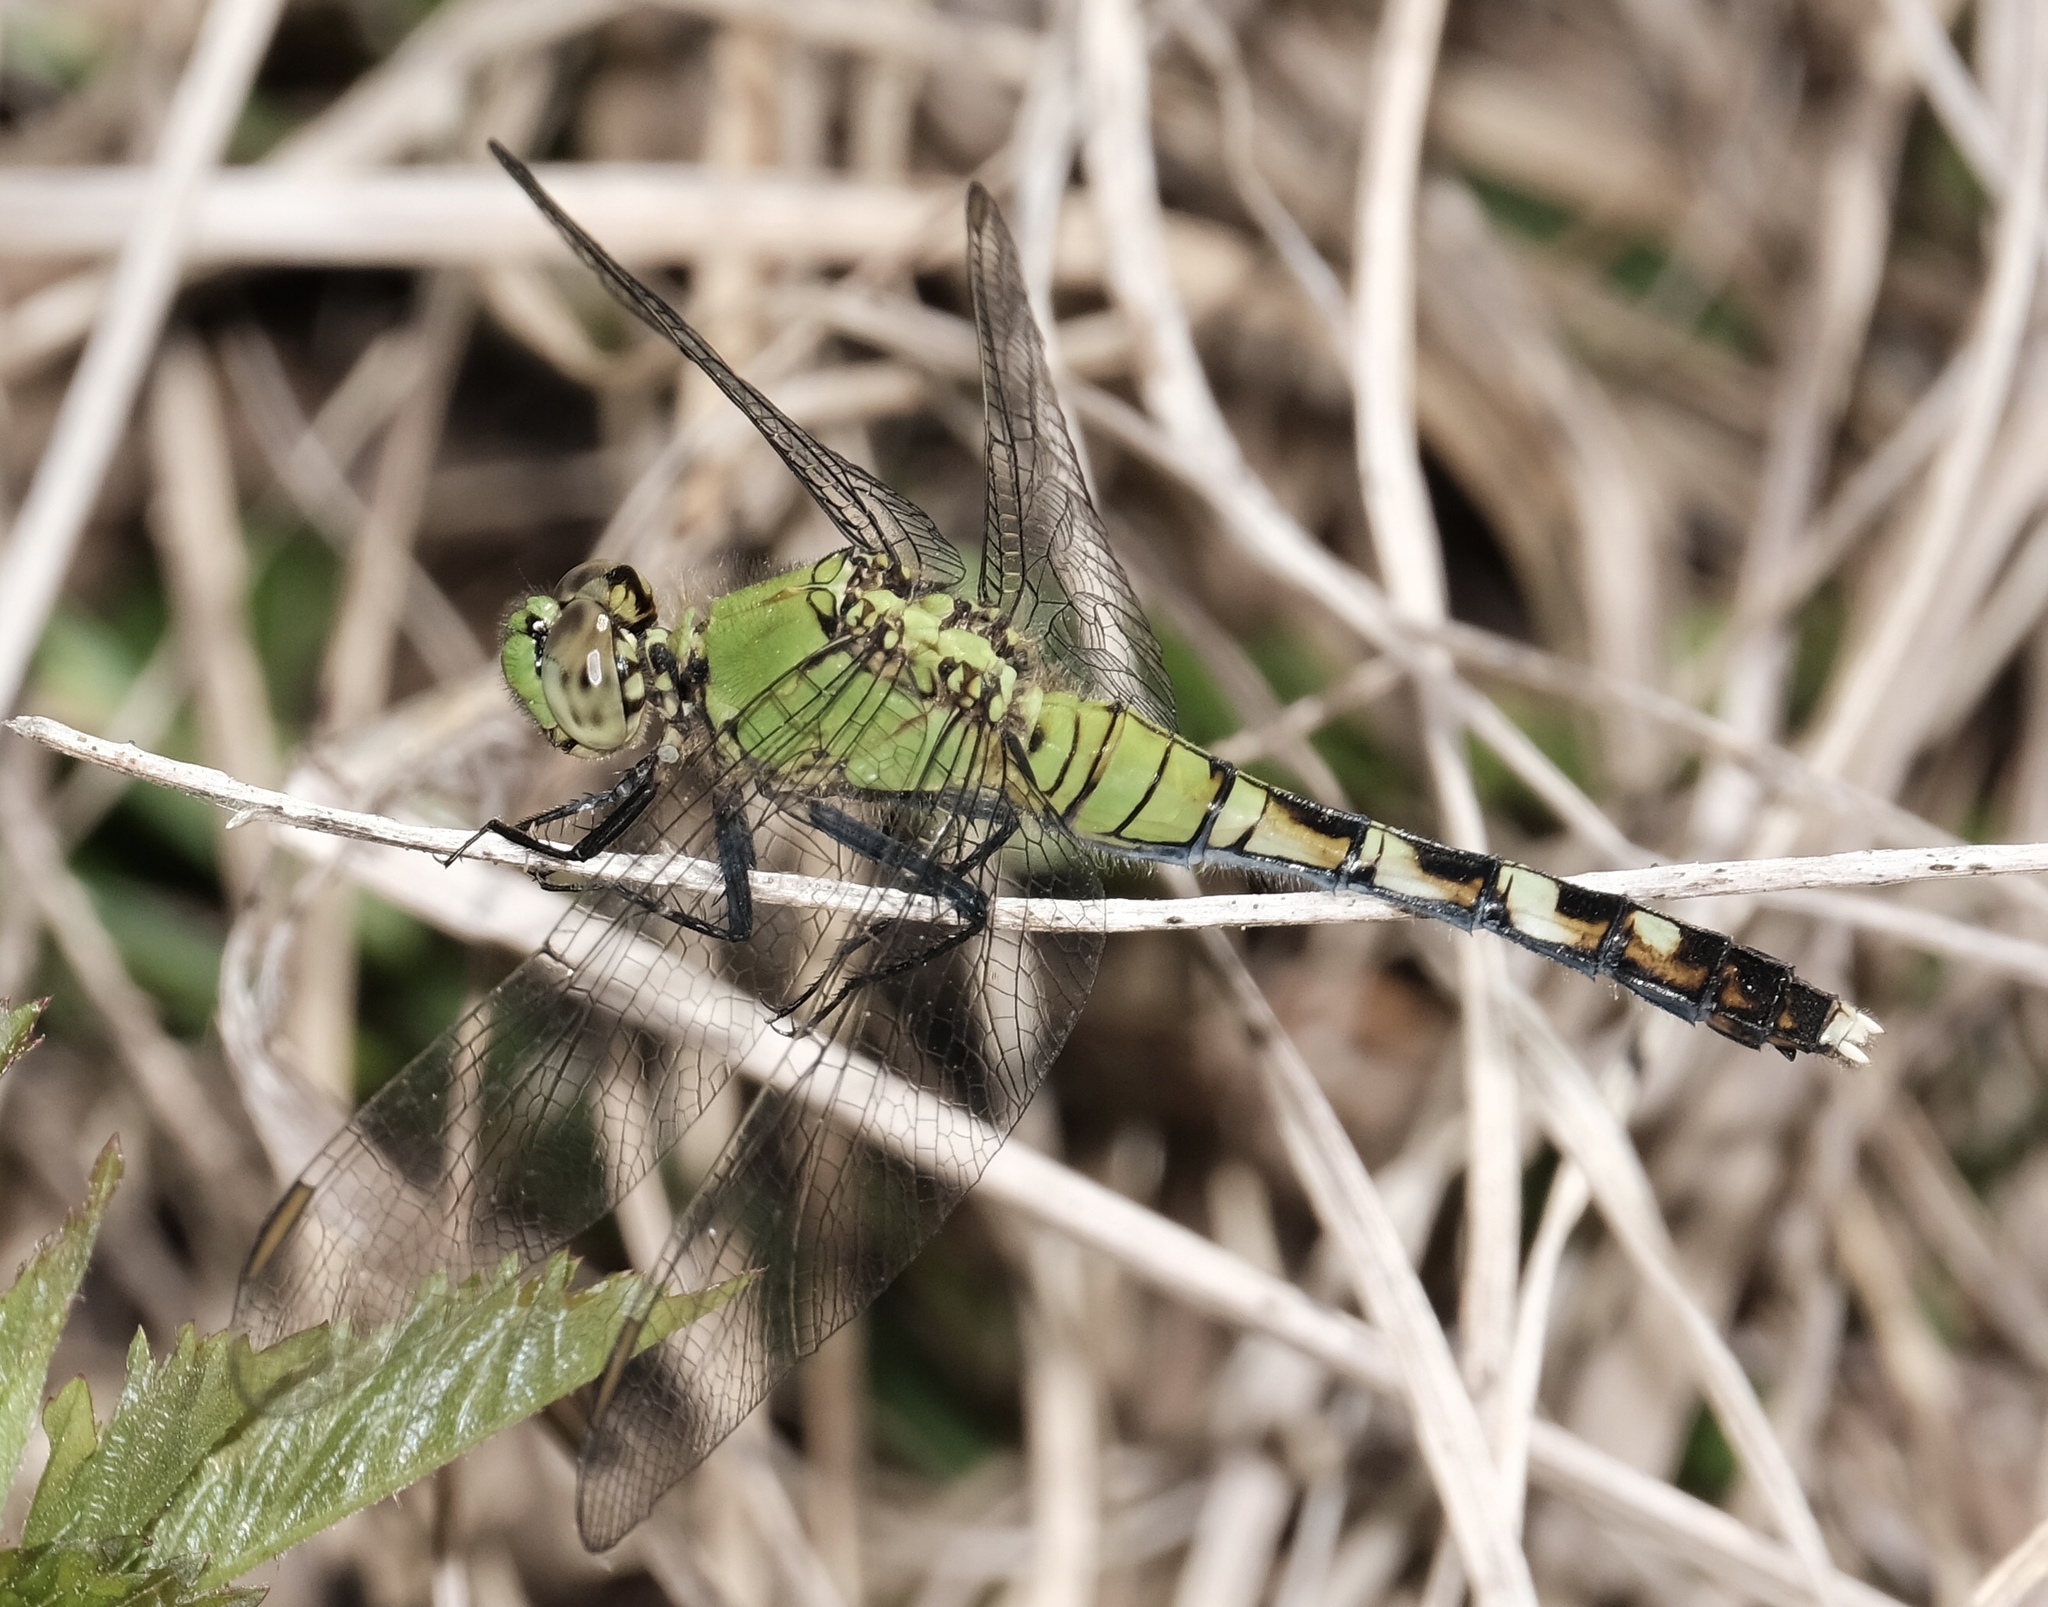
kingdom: Animalia
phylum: Arthropoda
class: Insecta
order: Odonata
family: Libellulidae
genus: Erythemis
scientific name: Erythemis simplicicollis
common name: Eastern pondhawk
